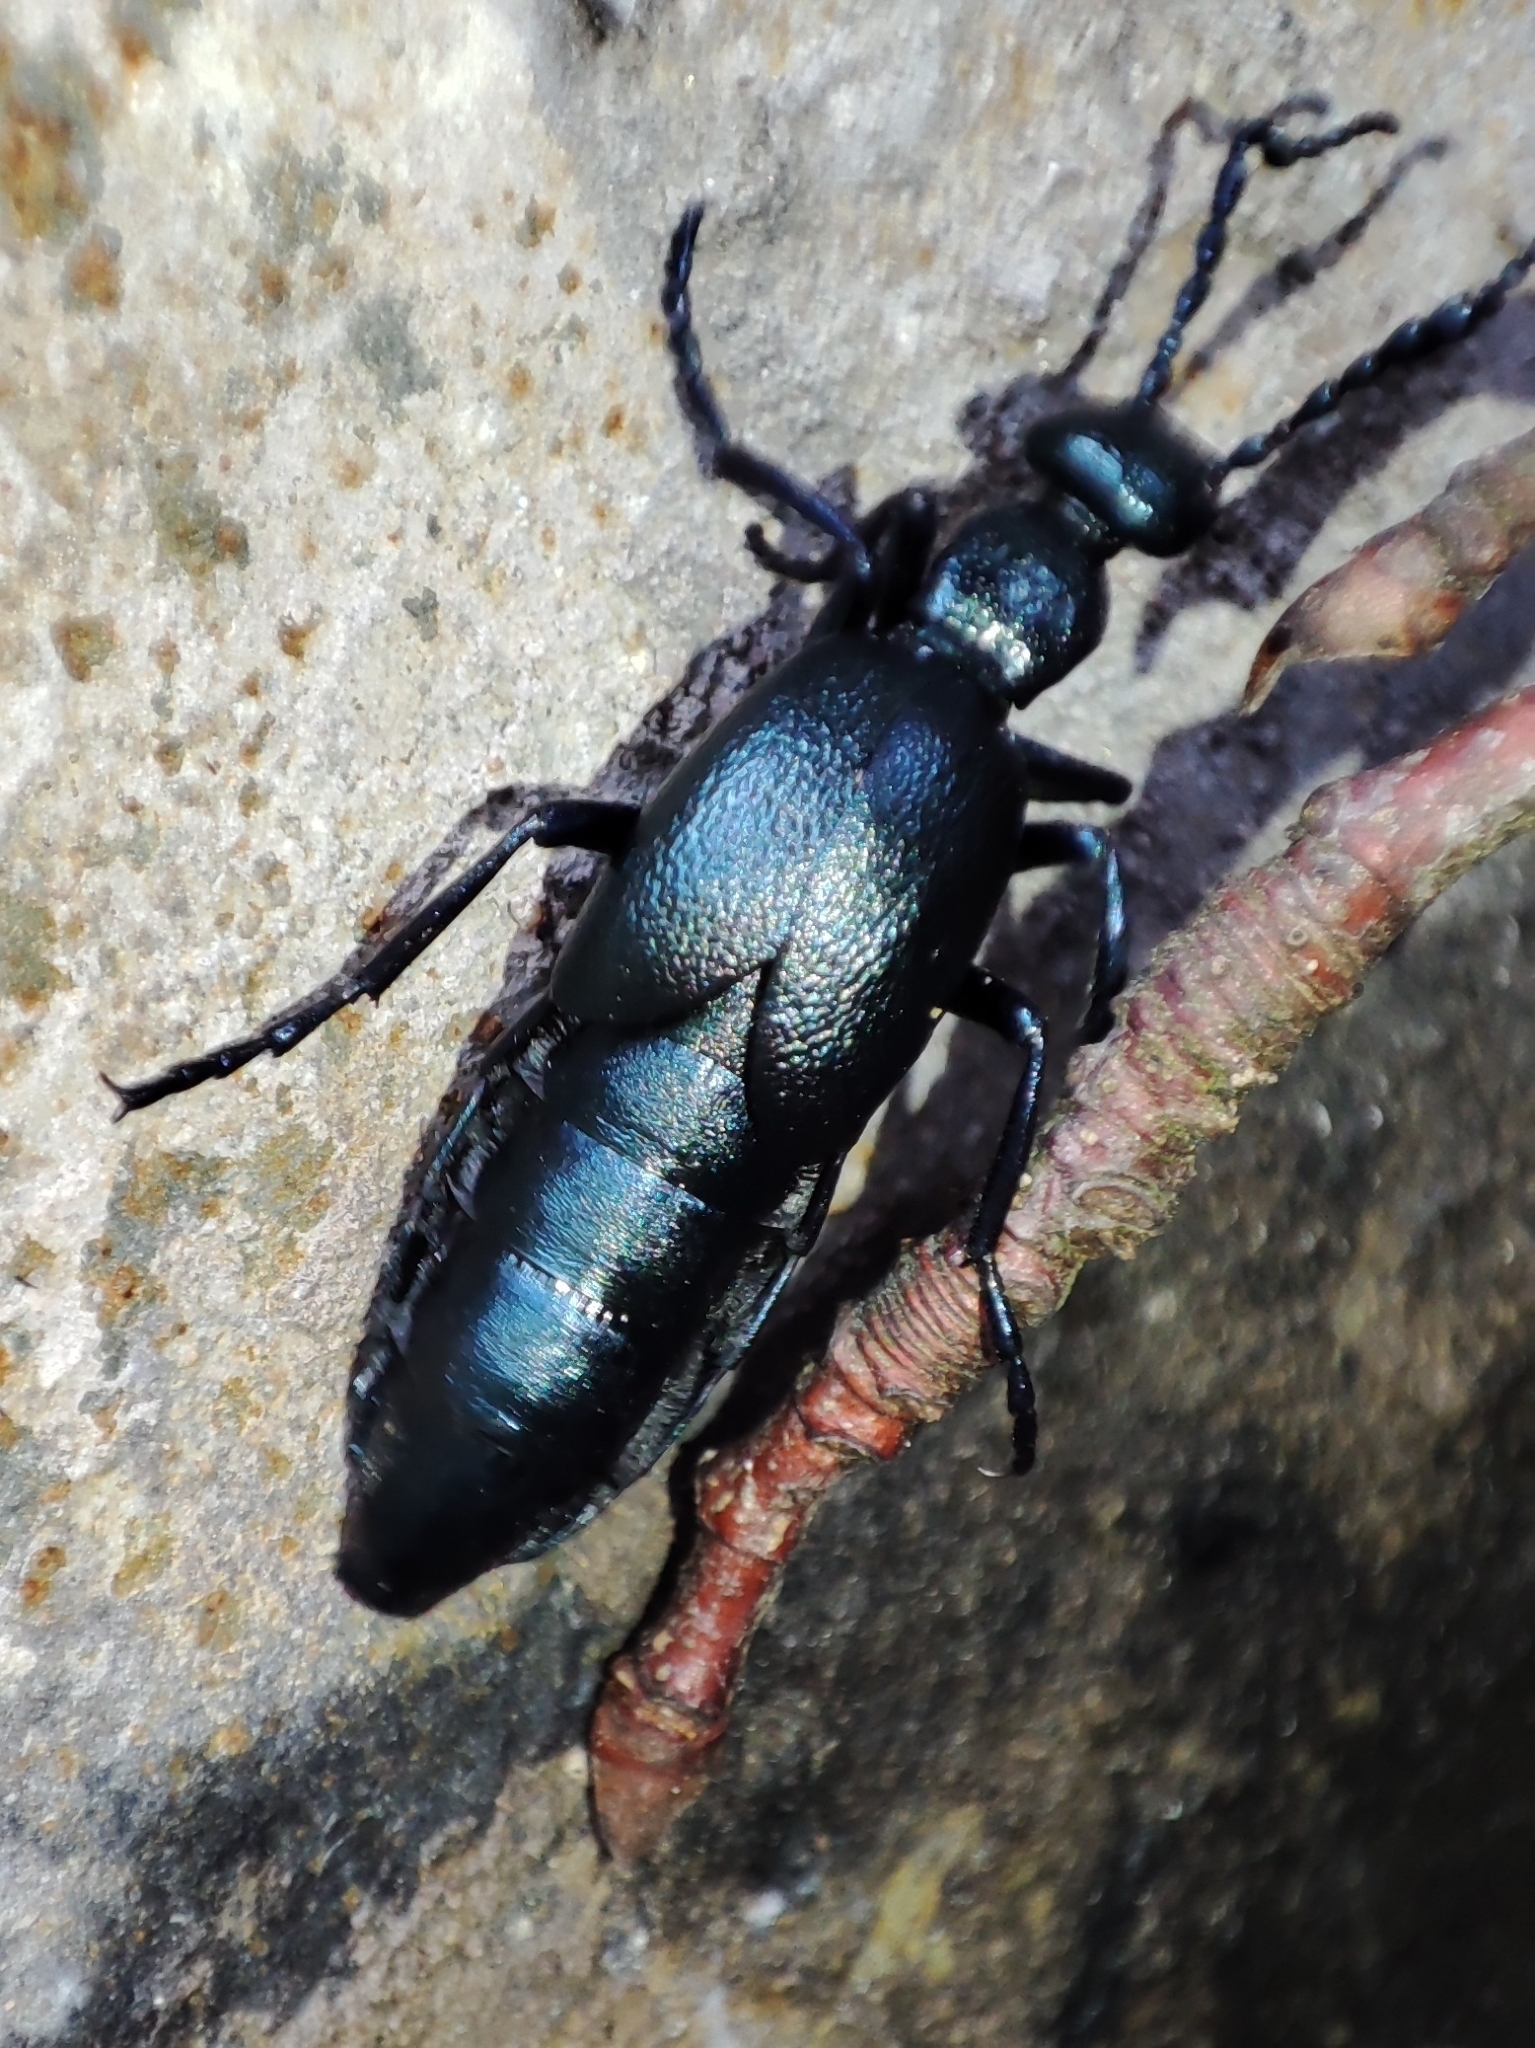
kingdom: Animalia
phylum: Arthropoda
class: Insecta
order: Coleoptera
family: Meloidae
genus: Meloe
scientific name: Meloe violaceus
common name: Violet oil-beetle
